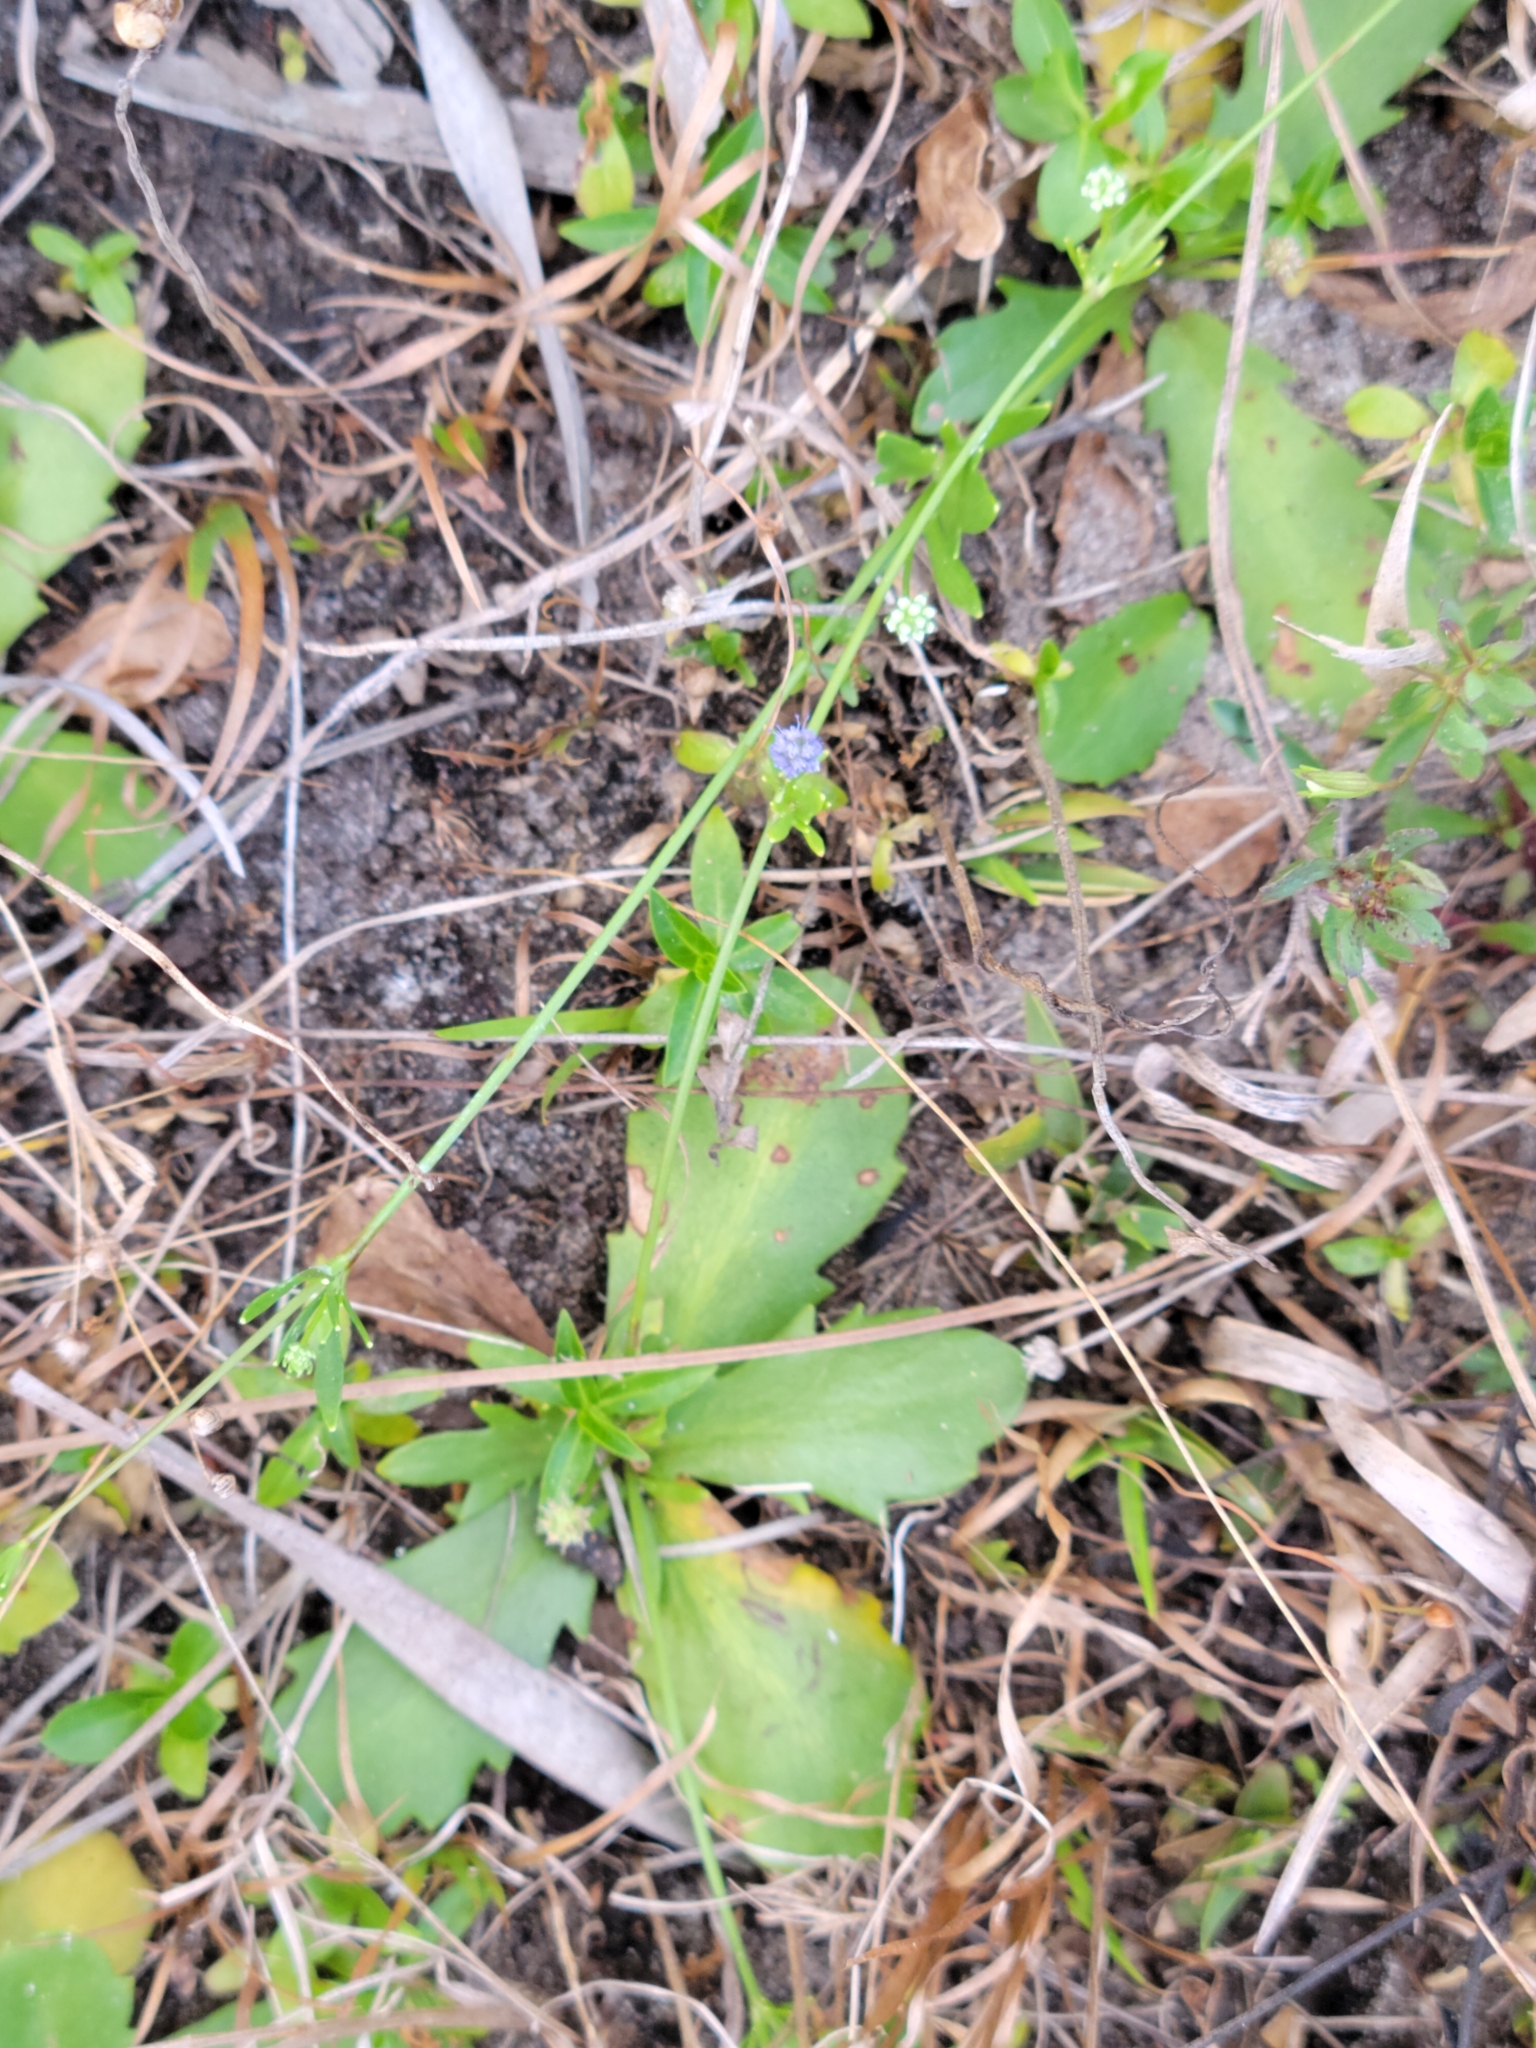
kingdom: Plantae
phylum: Tracheophyta
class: Magnoliopsida
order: Apiales
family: Apiaceae
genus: Eryngium
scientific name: Eryngium baldwinii
